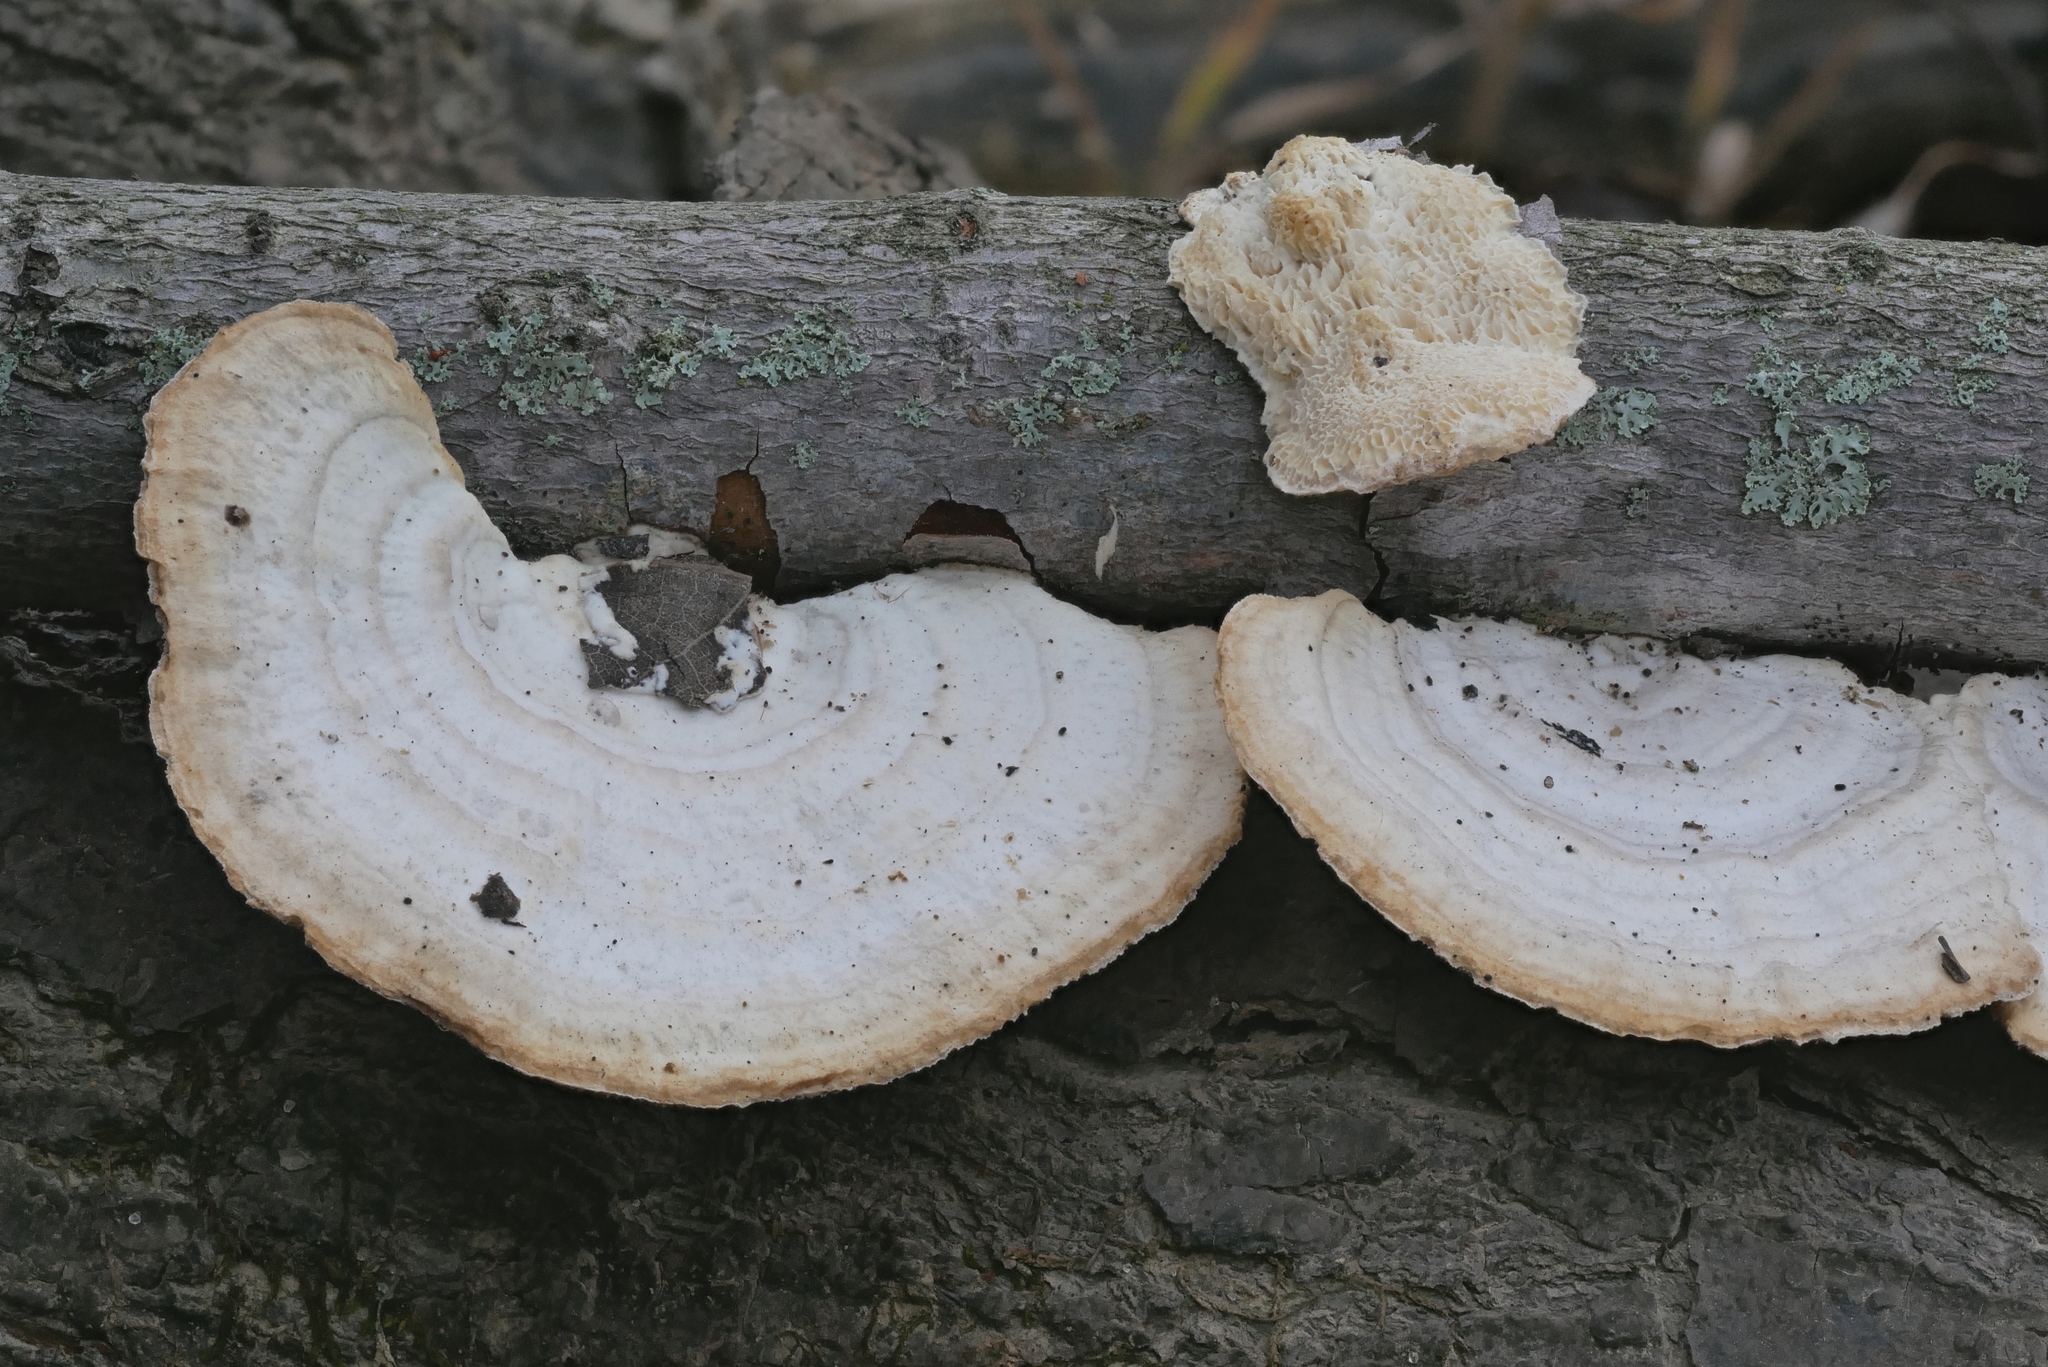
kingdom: Fungi
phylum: Basidiomycota
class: Agaricomycetes
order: Polyporales
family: Polyporaceae
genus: Trametes
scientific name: Trametes pubescens
